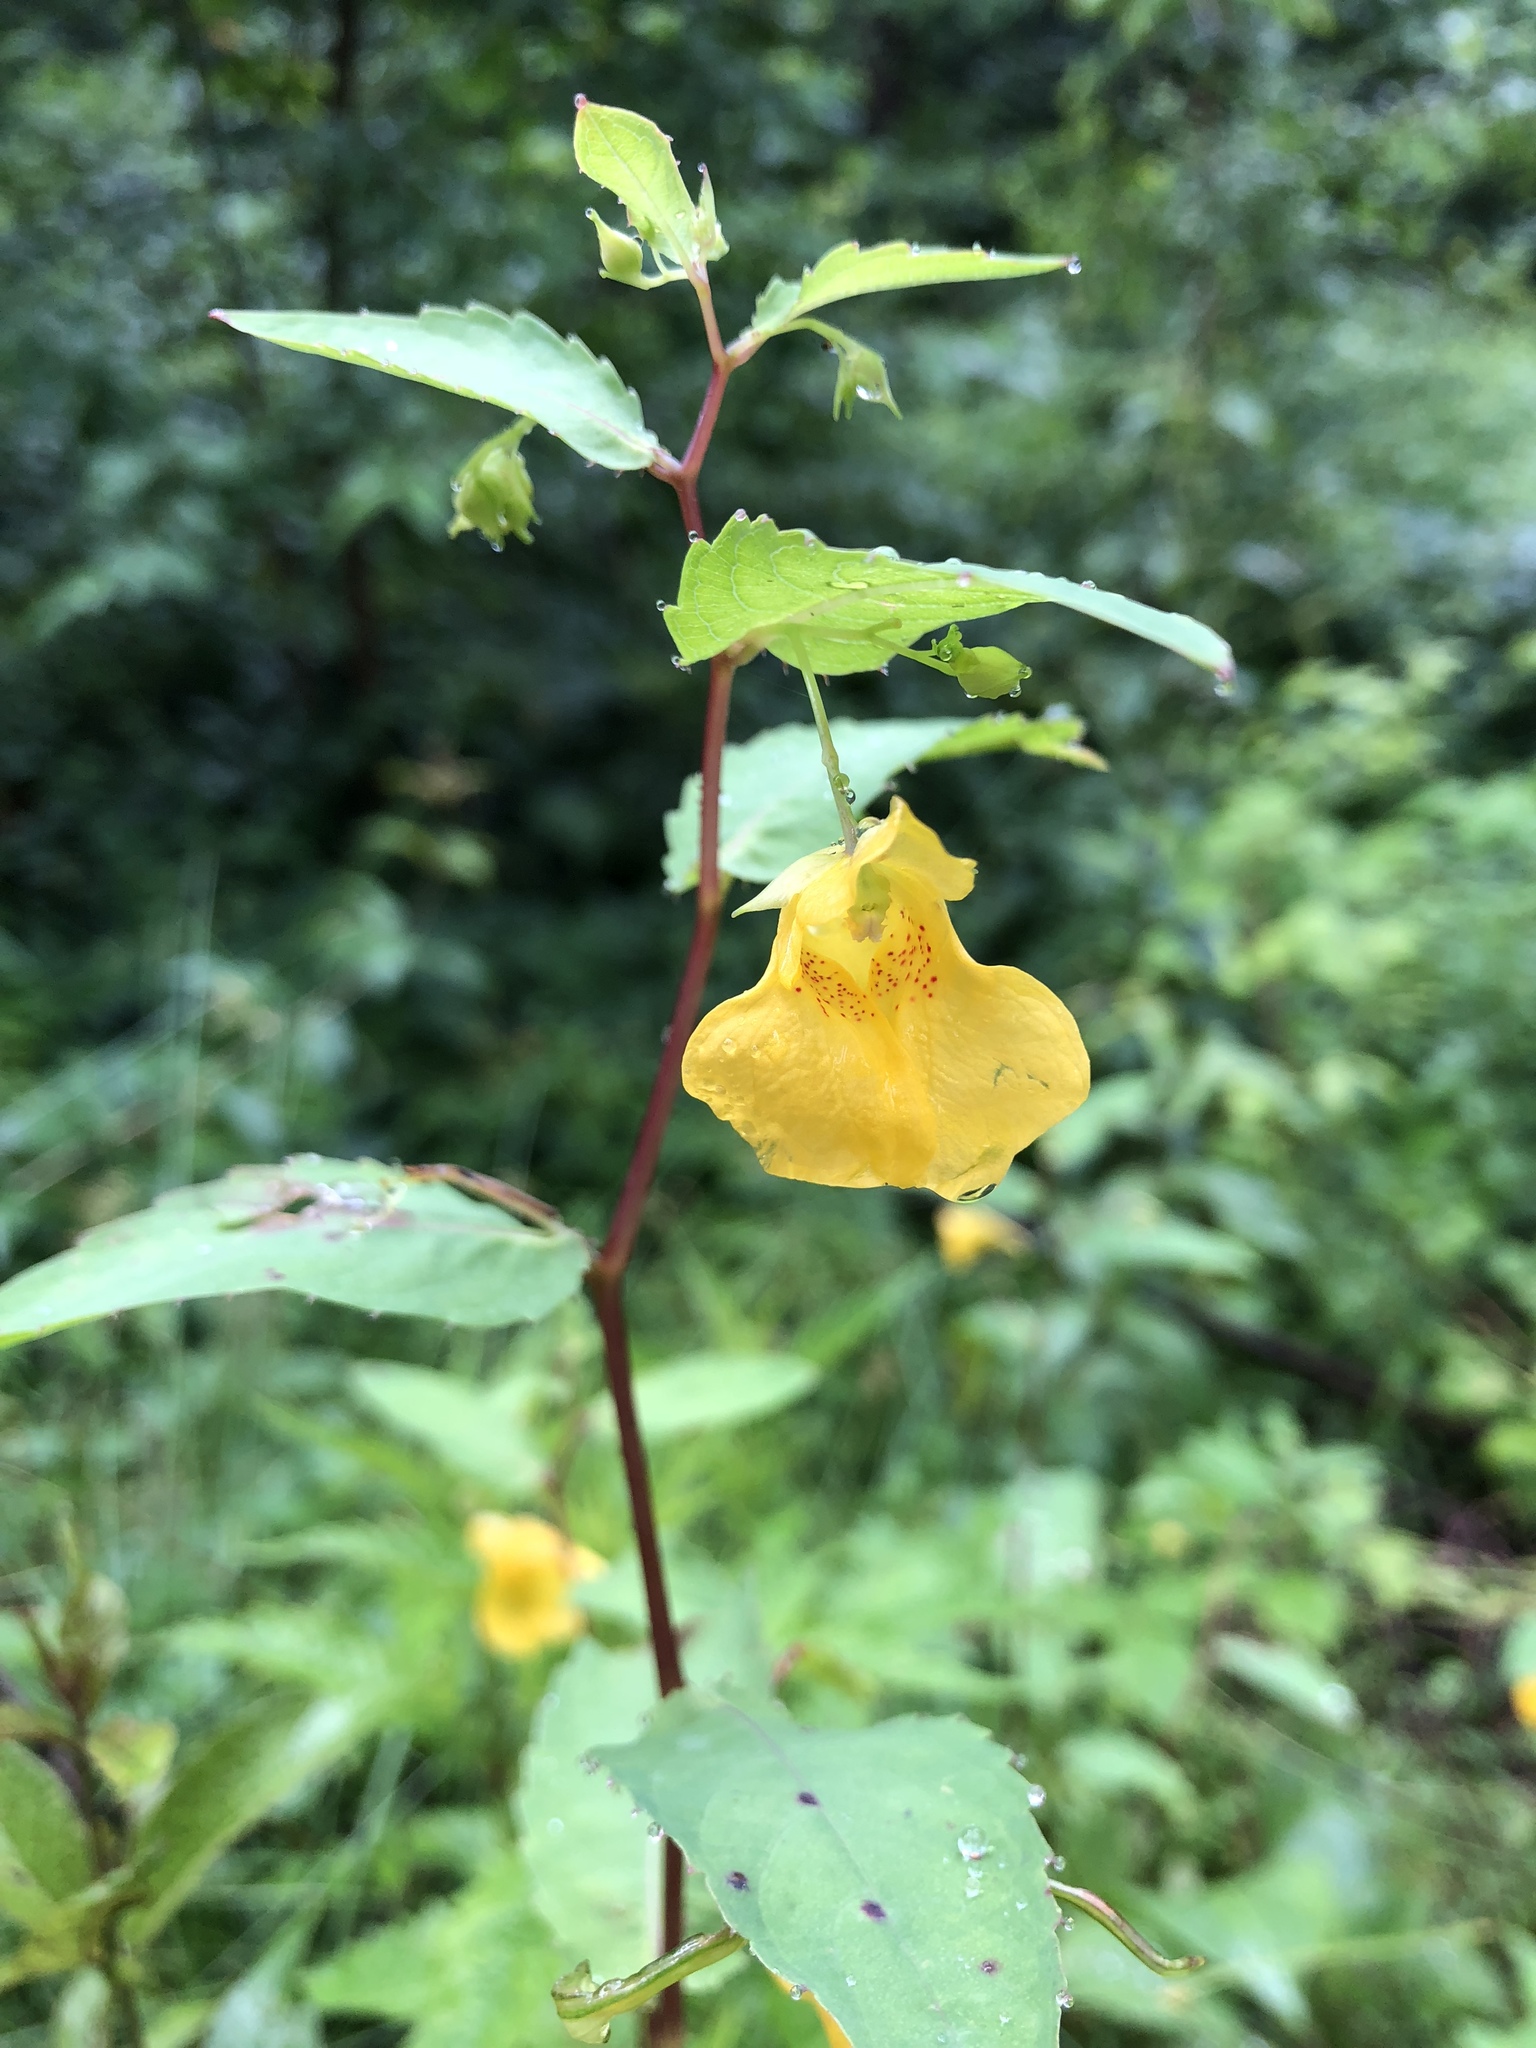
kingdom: Plantae
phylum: Tracheophyta
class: Magnoliopsida
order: Ericales
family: Balsaminaceae
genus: Impatiens
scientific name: Impatiens noli-tangere
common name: Touch-me-not balsam
